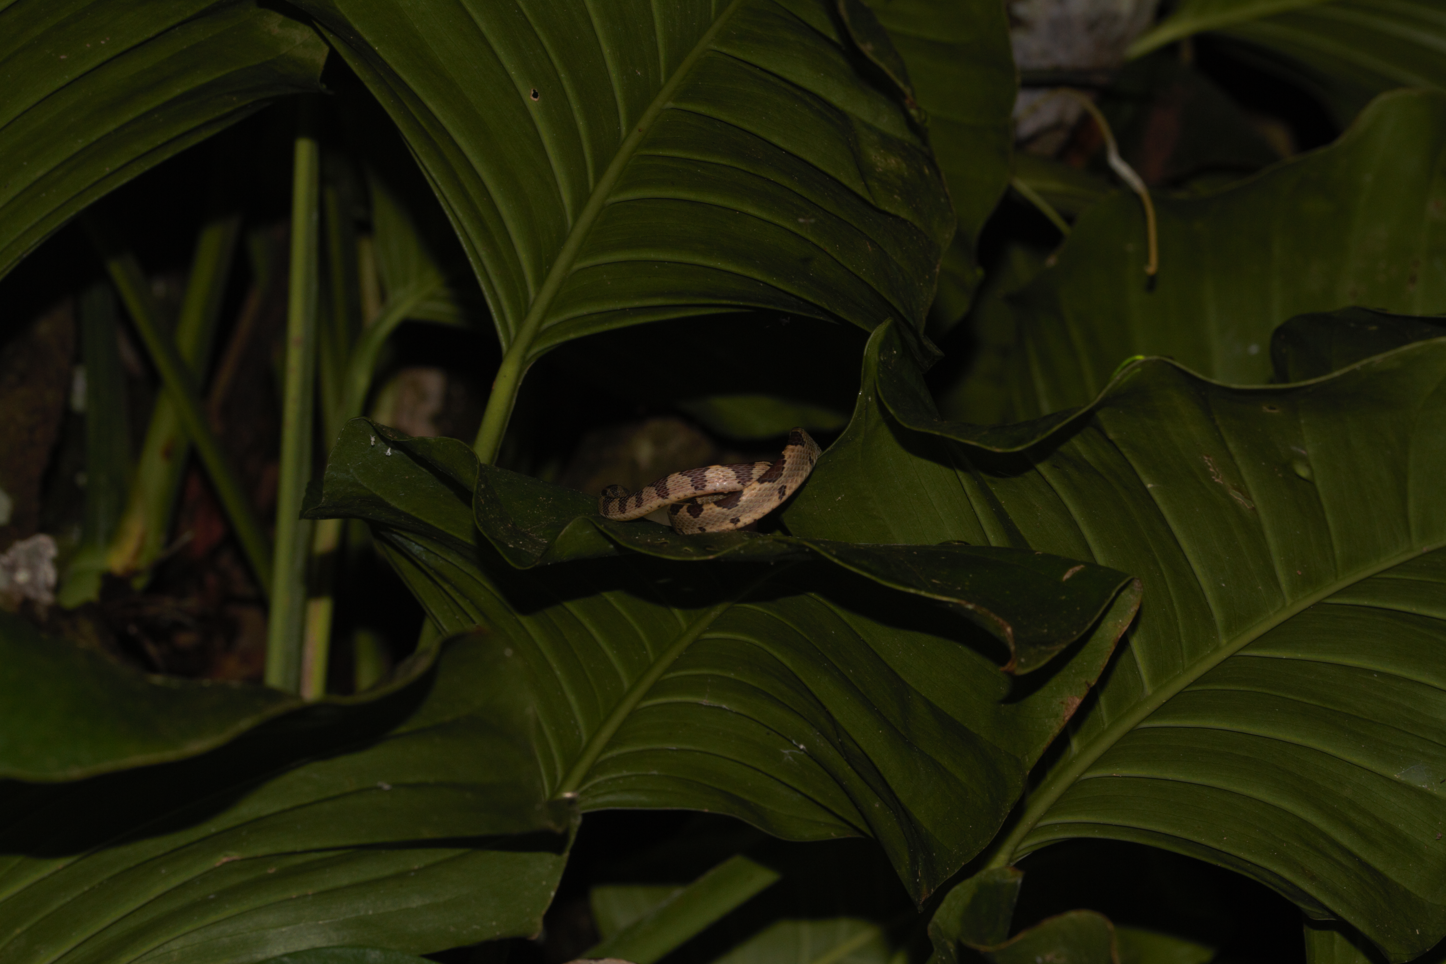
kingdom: Animalia
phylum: Chordata
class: Squamata
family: Colubridae
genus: Imantodes
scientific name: Imantodes cenchoa
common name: Blunthead tree snake
